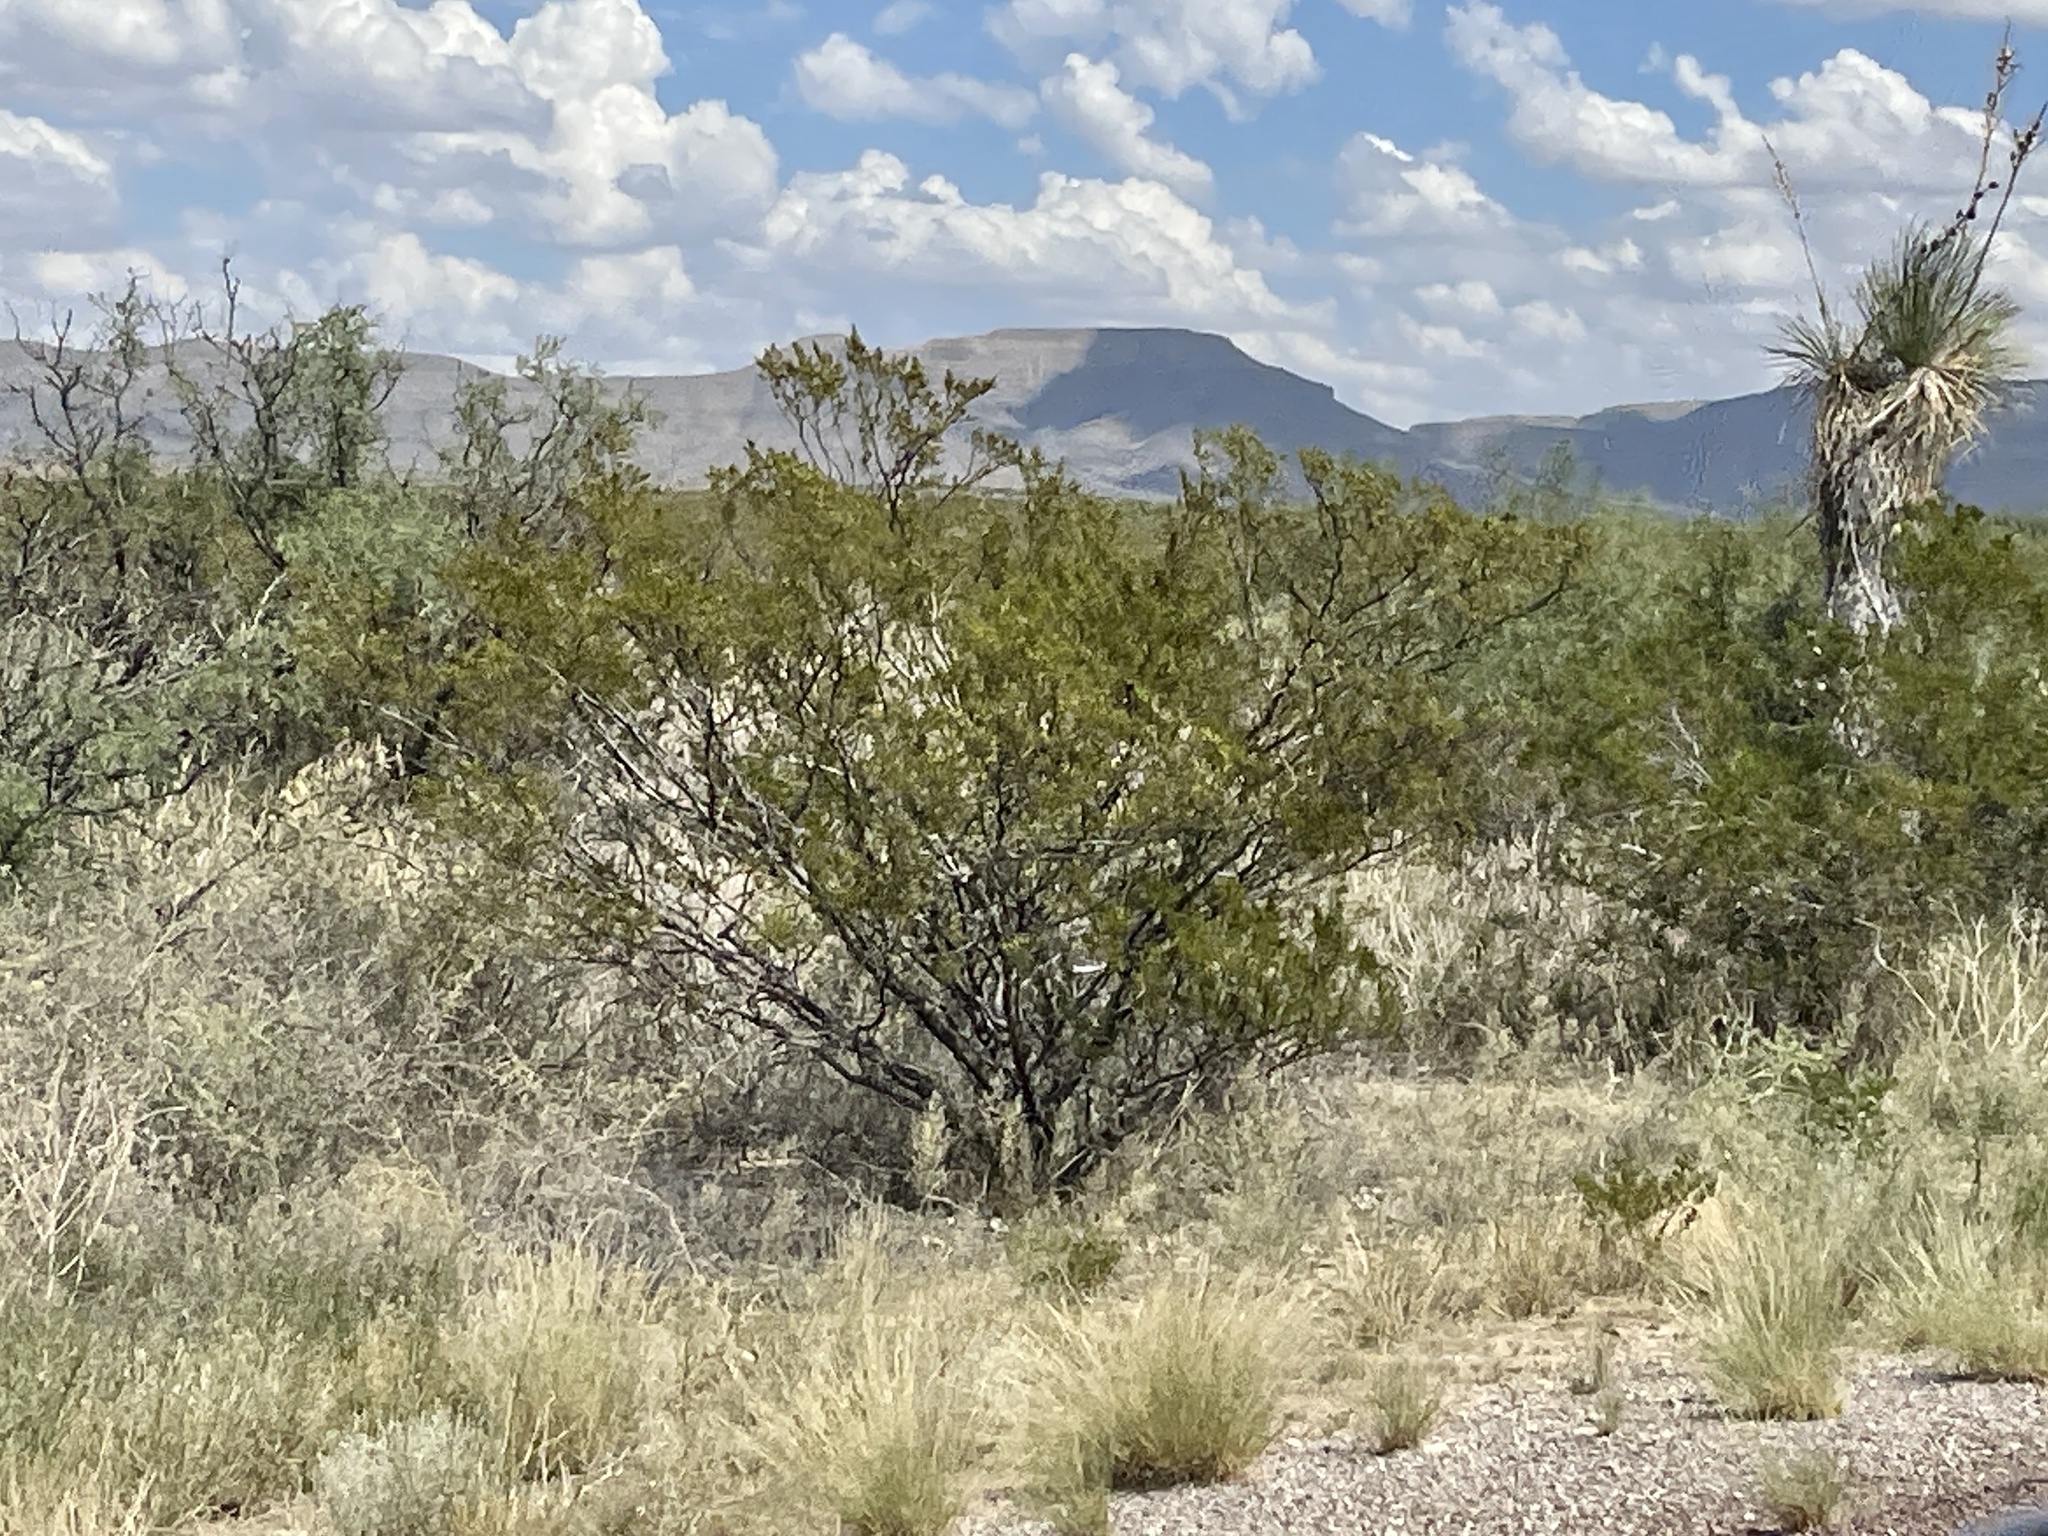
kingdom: Plantae
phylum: Tracheophyta
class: Magnoliopsida
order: Zygophyllales
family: Zygophyllaceae
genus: Larrea
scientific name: Larrea tridentata
